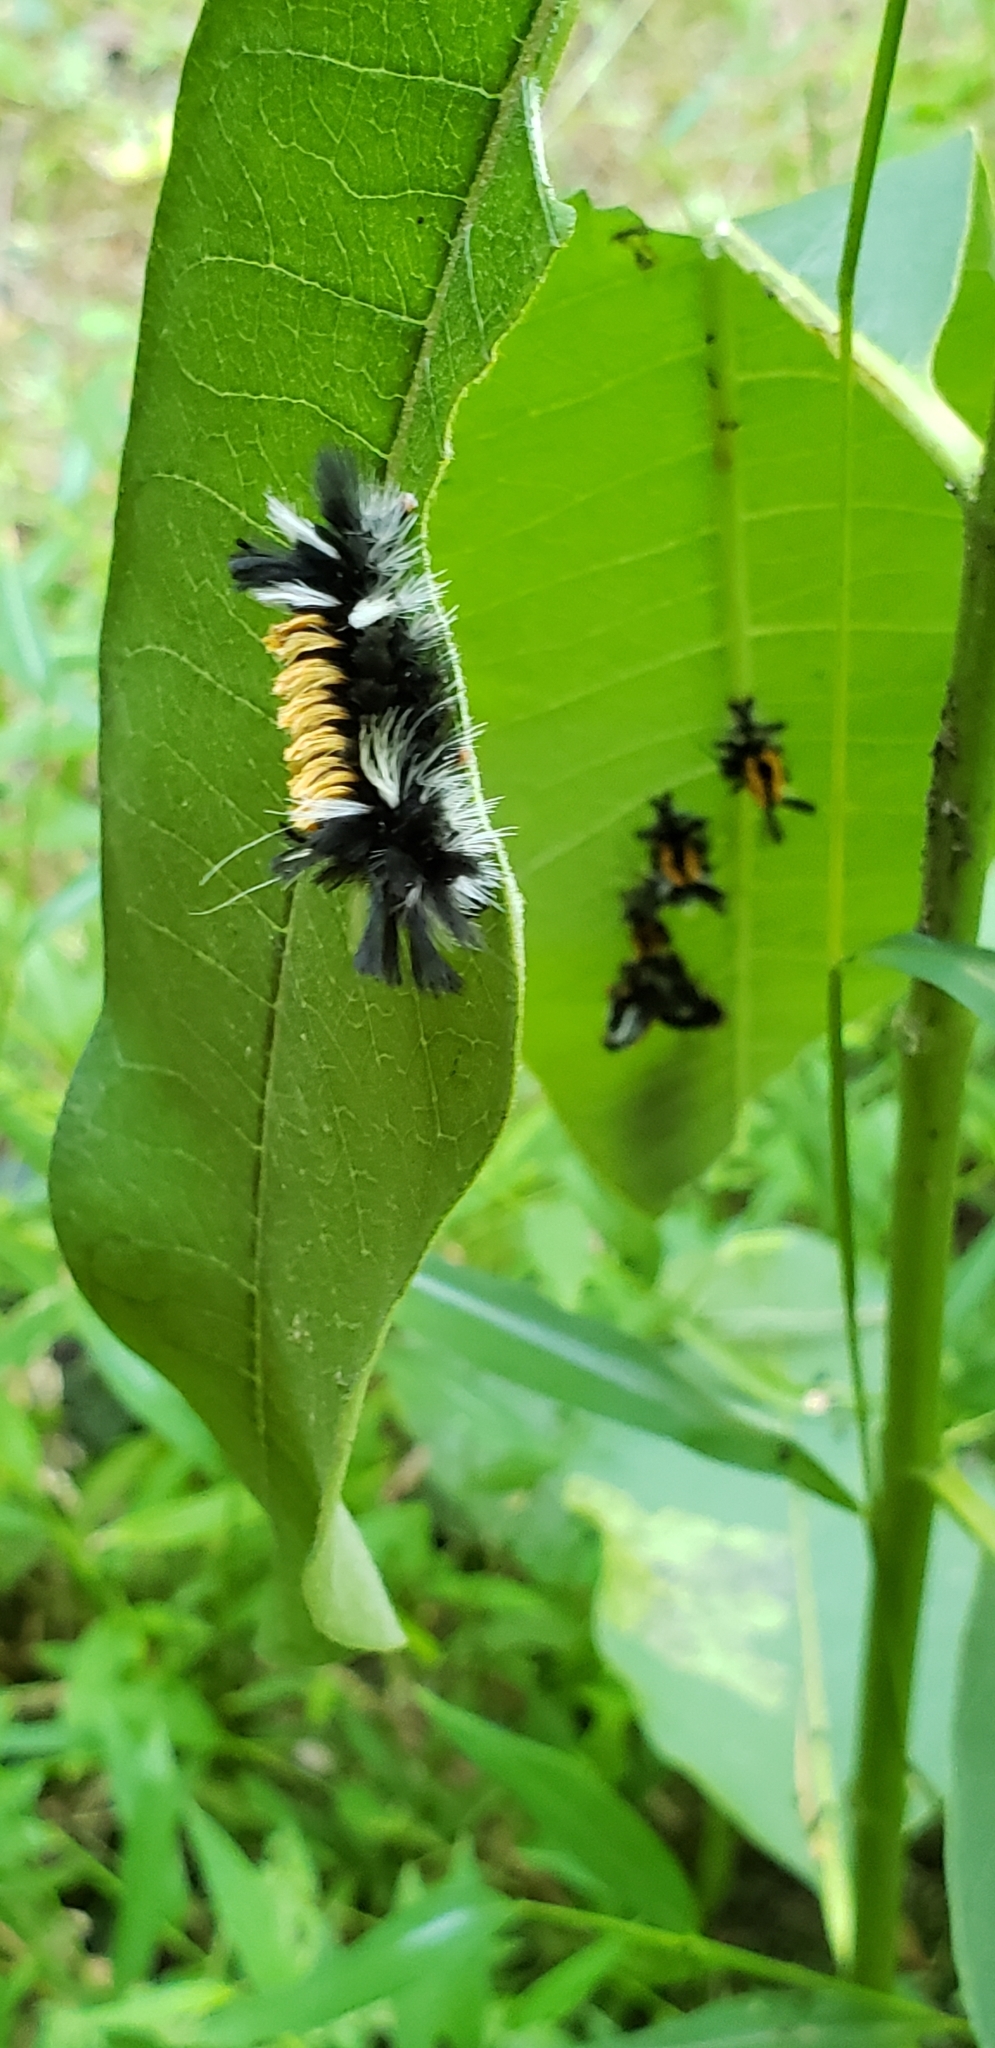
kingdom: Animalia
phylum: Arthropoda
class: Insecta
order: Lepidoptera
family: Erebidae
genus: Euchaetes
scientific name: Euchaetes egle
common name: Milkweed tussock moth
